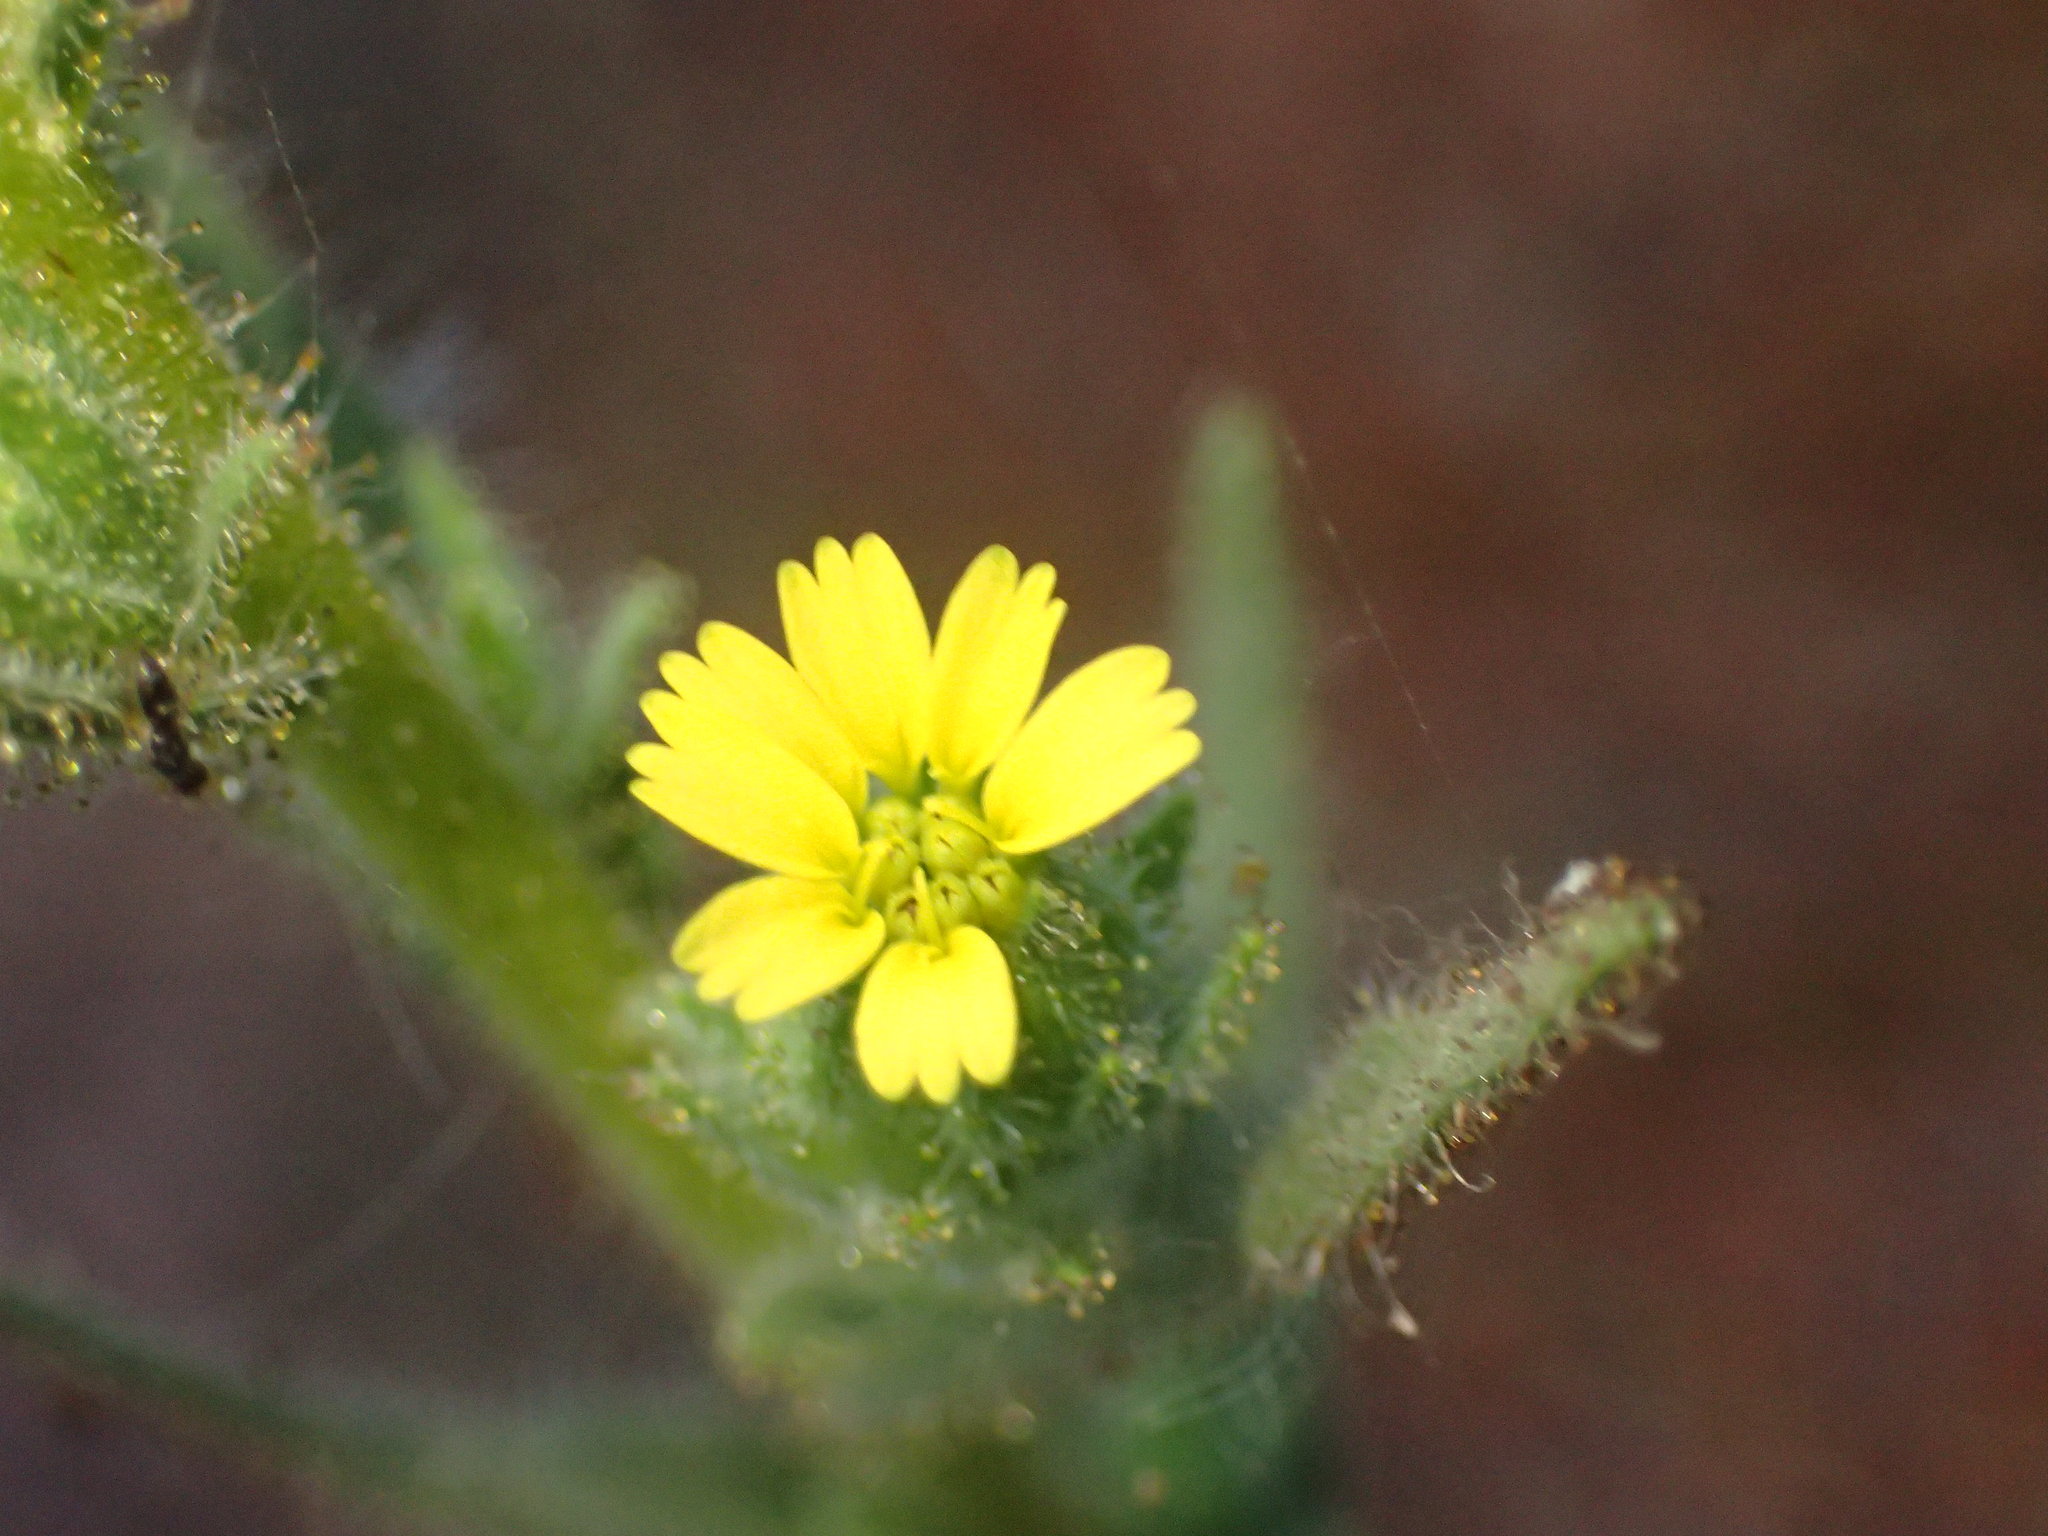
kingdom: Plantae
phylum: Tracheophyta
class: Magnoliopsida
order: Asterales
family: Asteraceae
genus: Madia
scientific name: Madia sativa
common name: Coast tarweed
